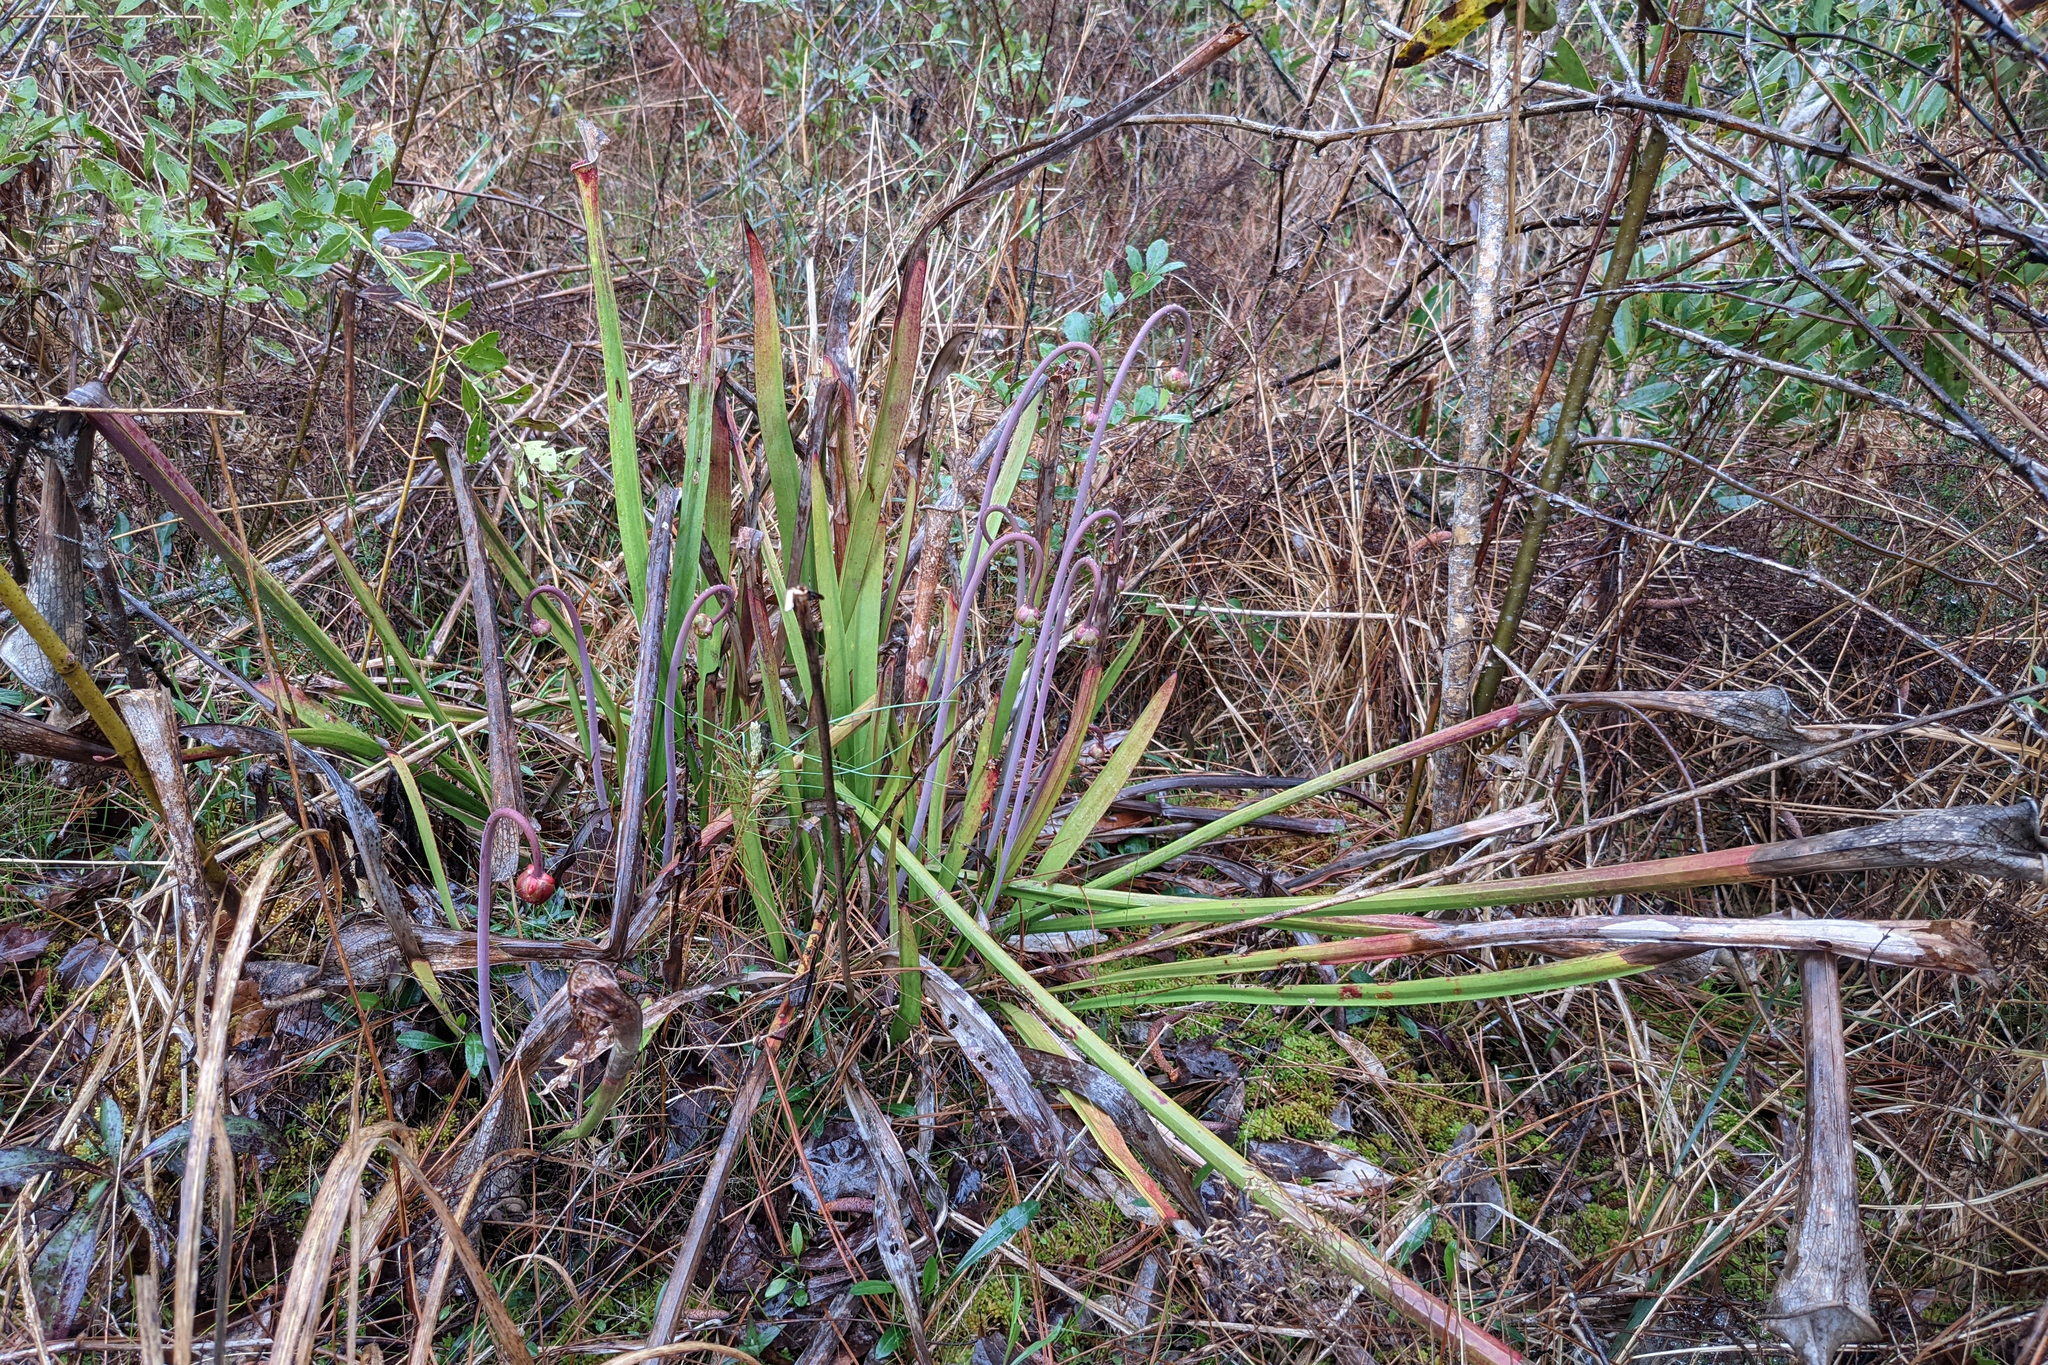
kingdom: Plantae
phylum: Tracheophyta
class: Magnoliopsida
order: Ericales
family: Sarraceniaceae
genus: Sarracenia
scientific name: Sarracenia leucophylla
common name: Purple trumpetleaf
